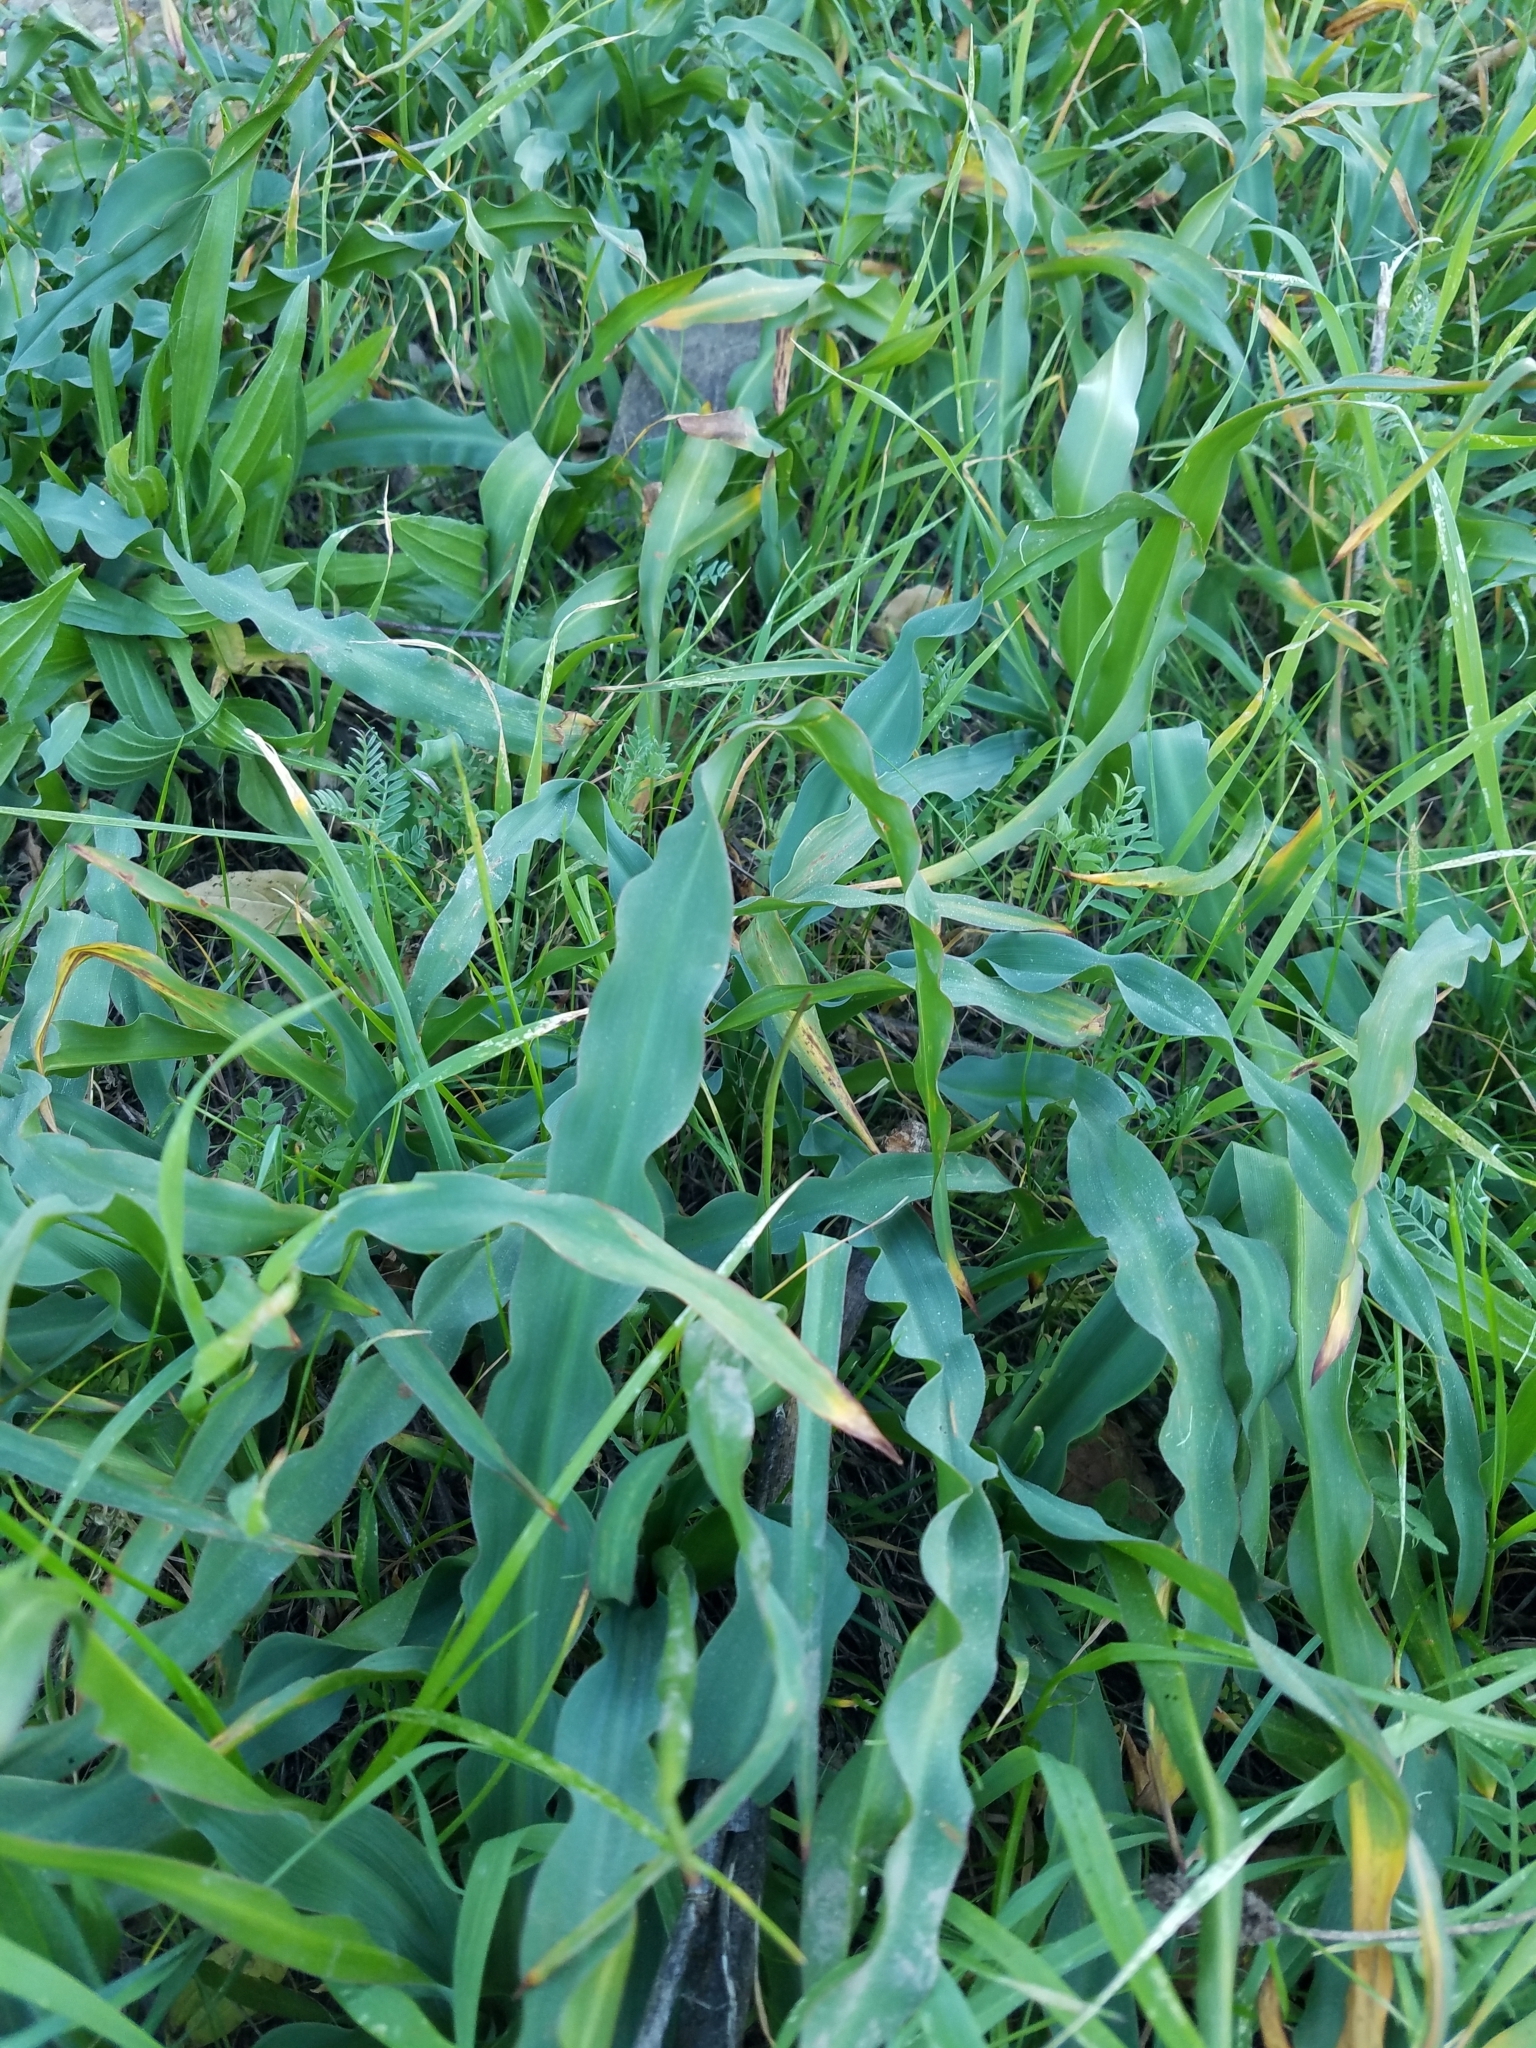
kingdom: Plantae
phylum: Tracheophyta
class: Liliopsida
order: Asparagales
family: Asparagaceae
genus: Chlorogalum
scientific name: Chlorogalum pomeridianum
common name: Amole
